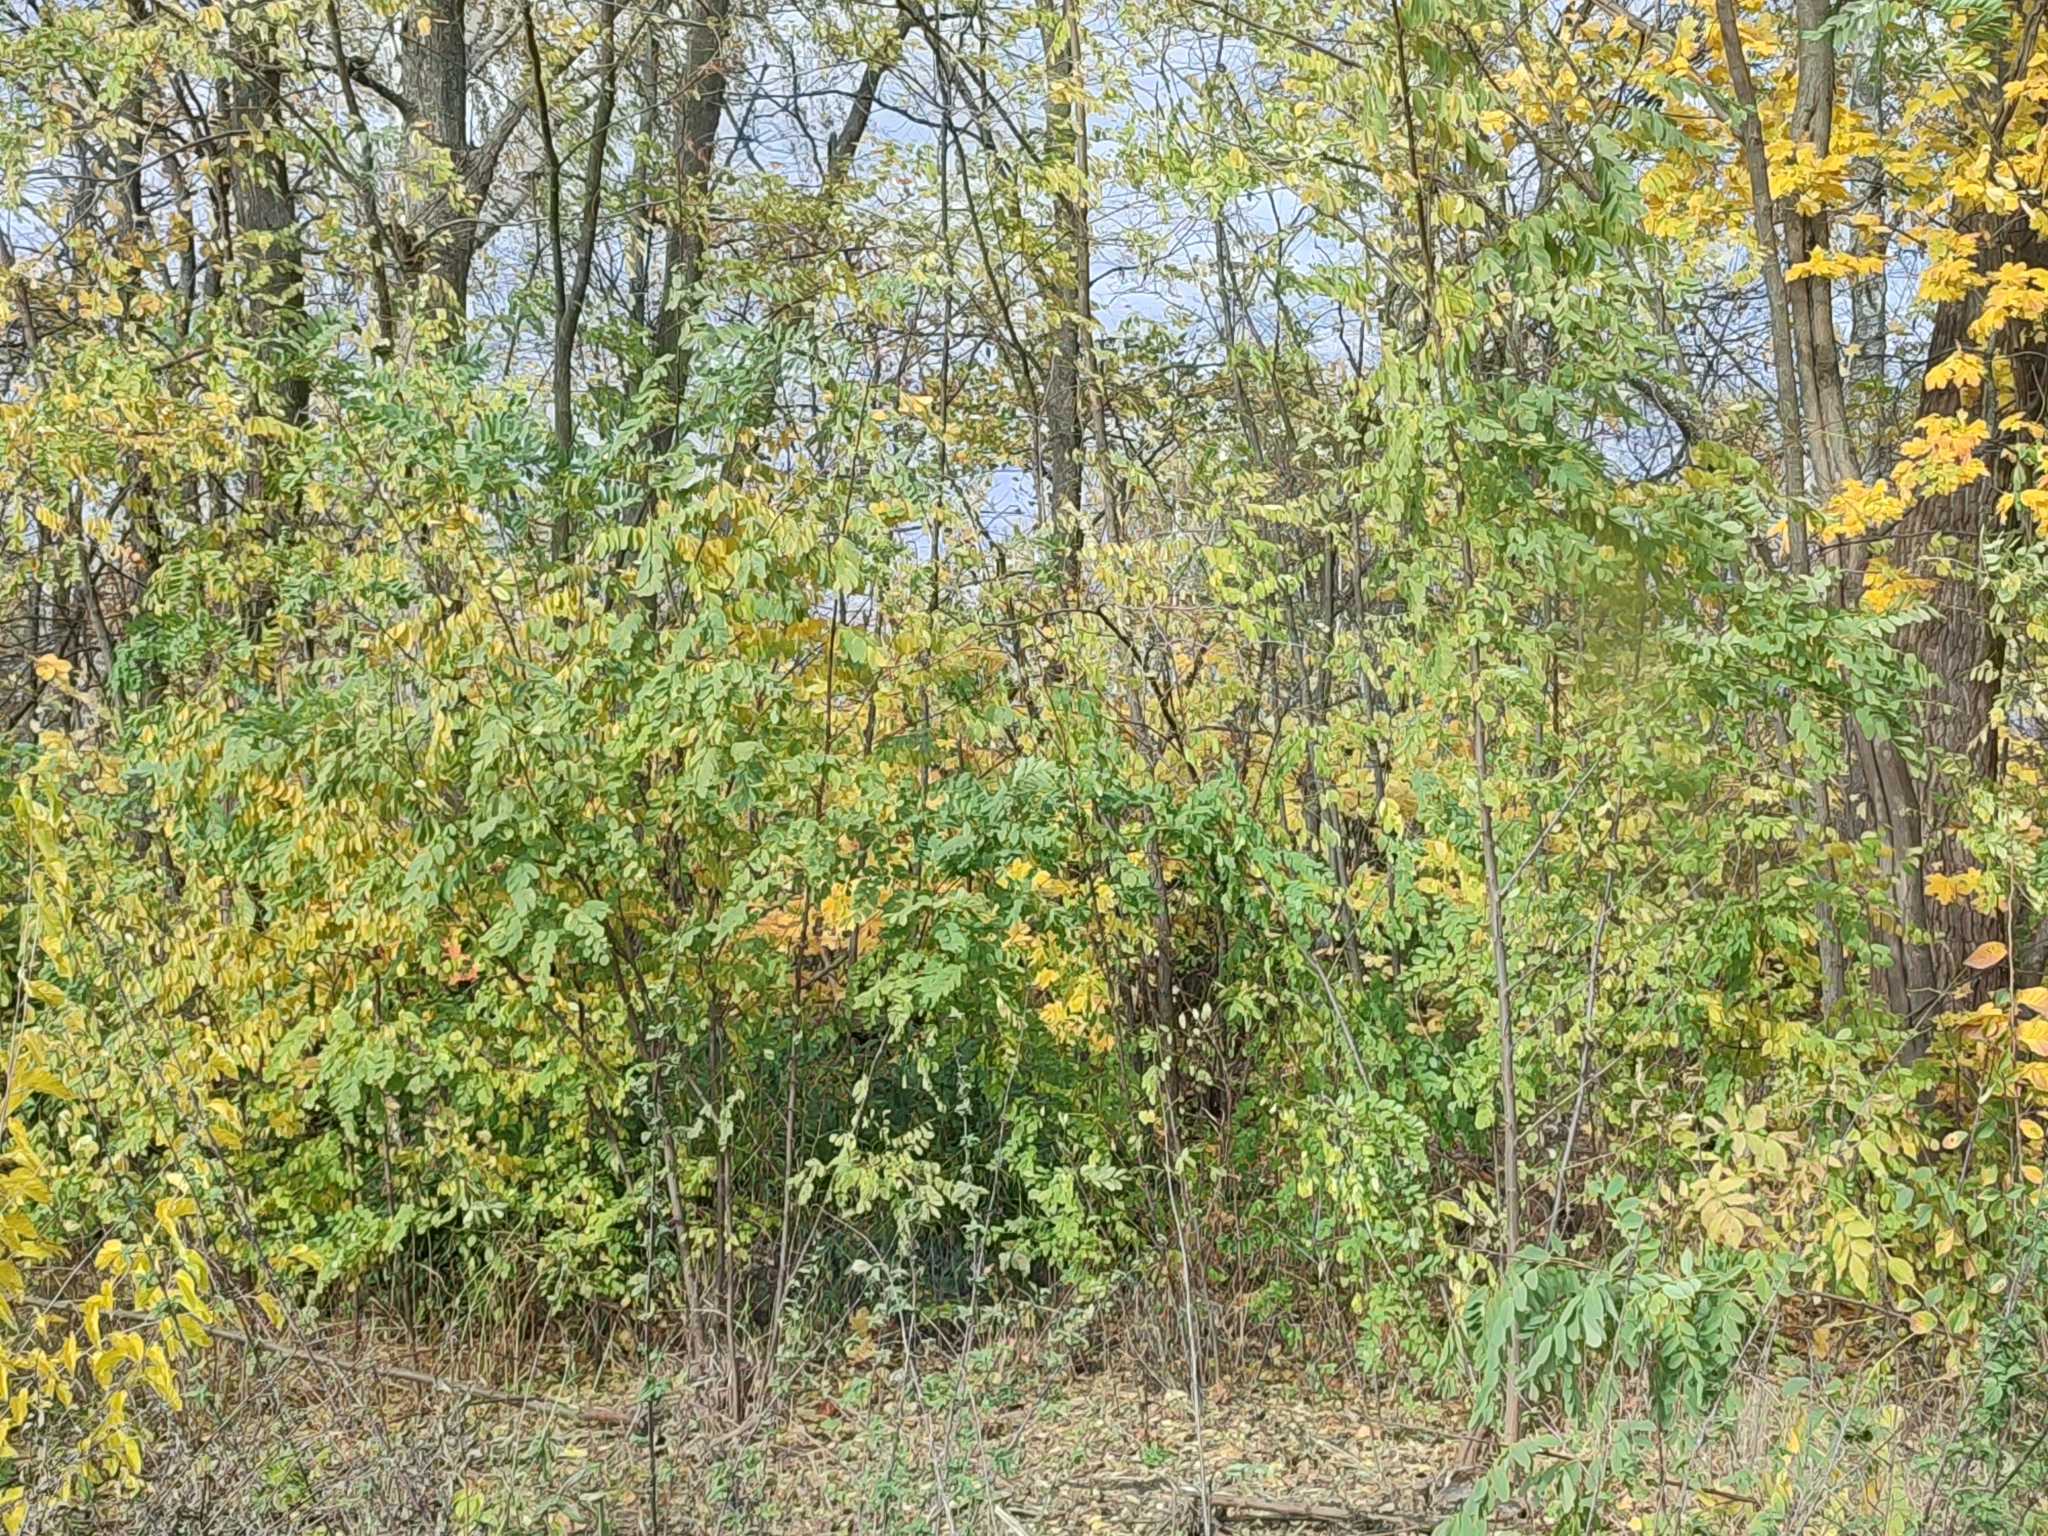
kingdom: Plantae
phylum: Tracheophyta
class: Magnoliopsida
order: Fabales
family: Fabaceae
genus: Robinia
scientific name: Robinia pseudoacacia
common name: Black locust
